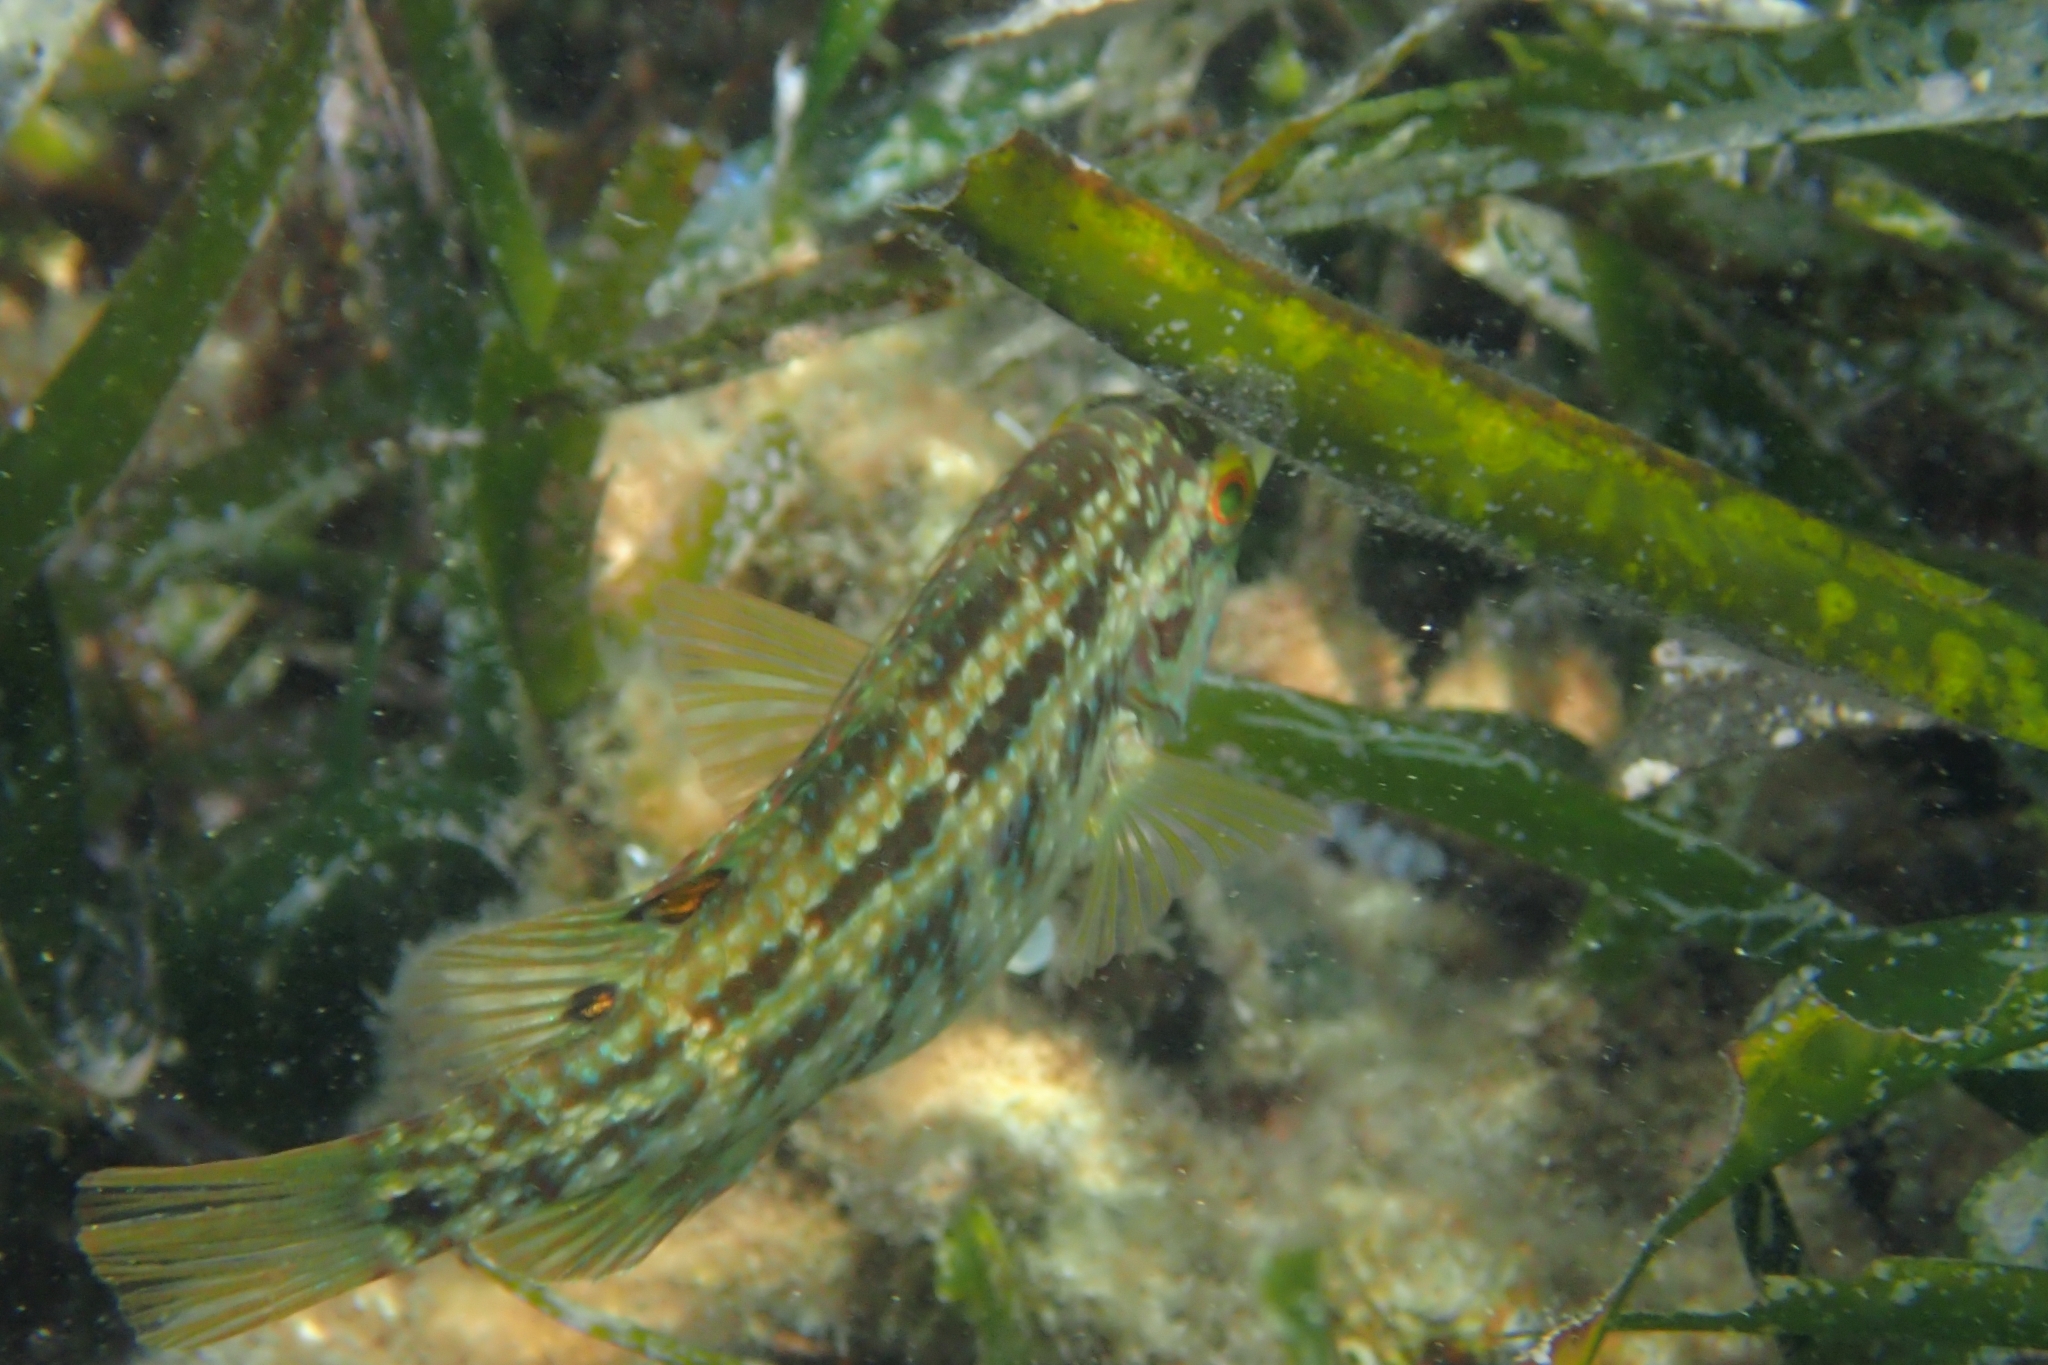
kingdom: Animalia
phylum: Chordata
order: Perciformes
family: Labridae
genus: Symphodus
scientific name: Symphodus roissali
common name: Five-spotted wrasse
